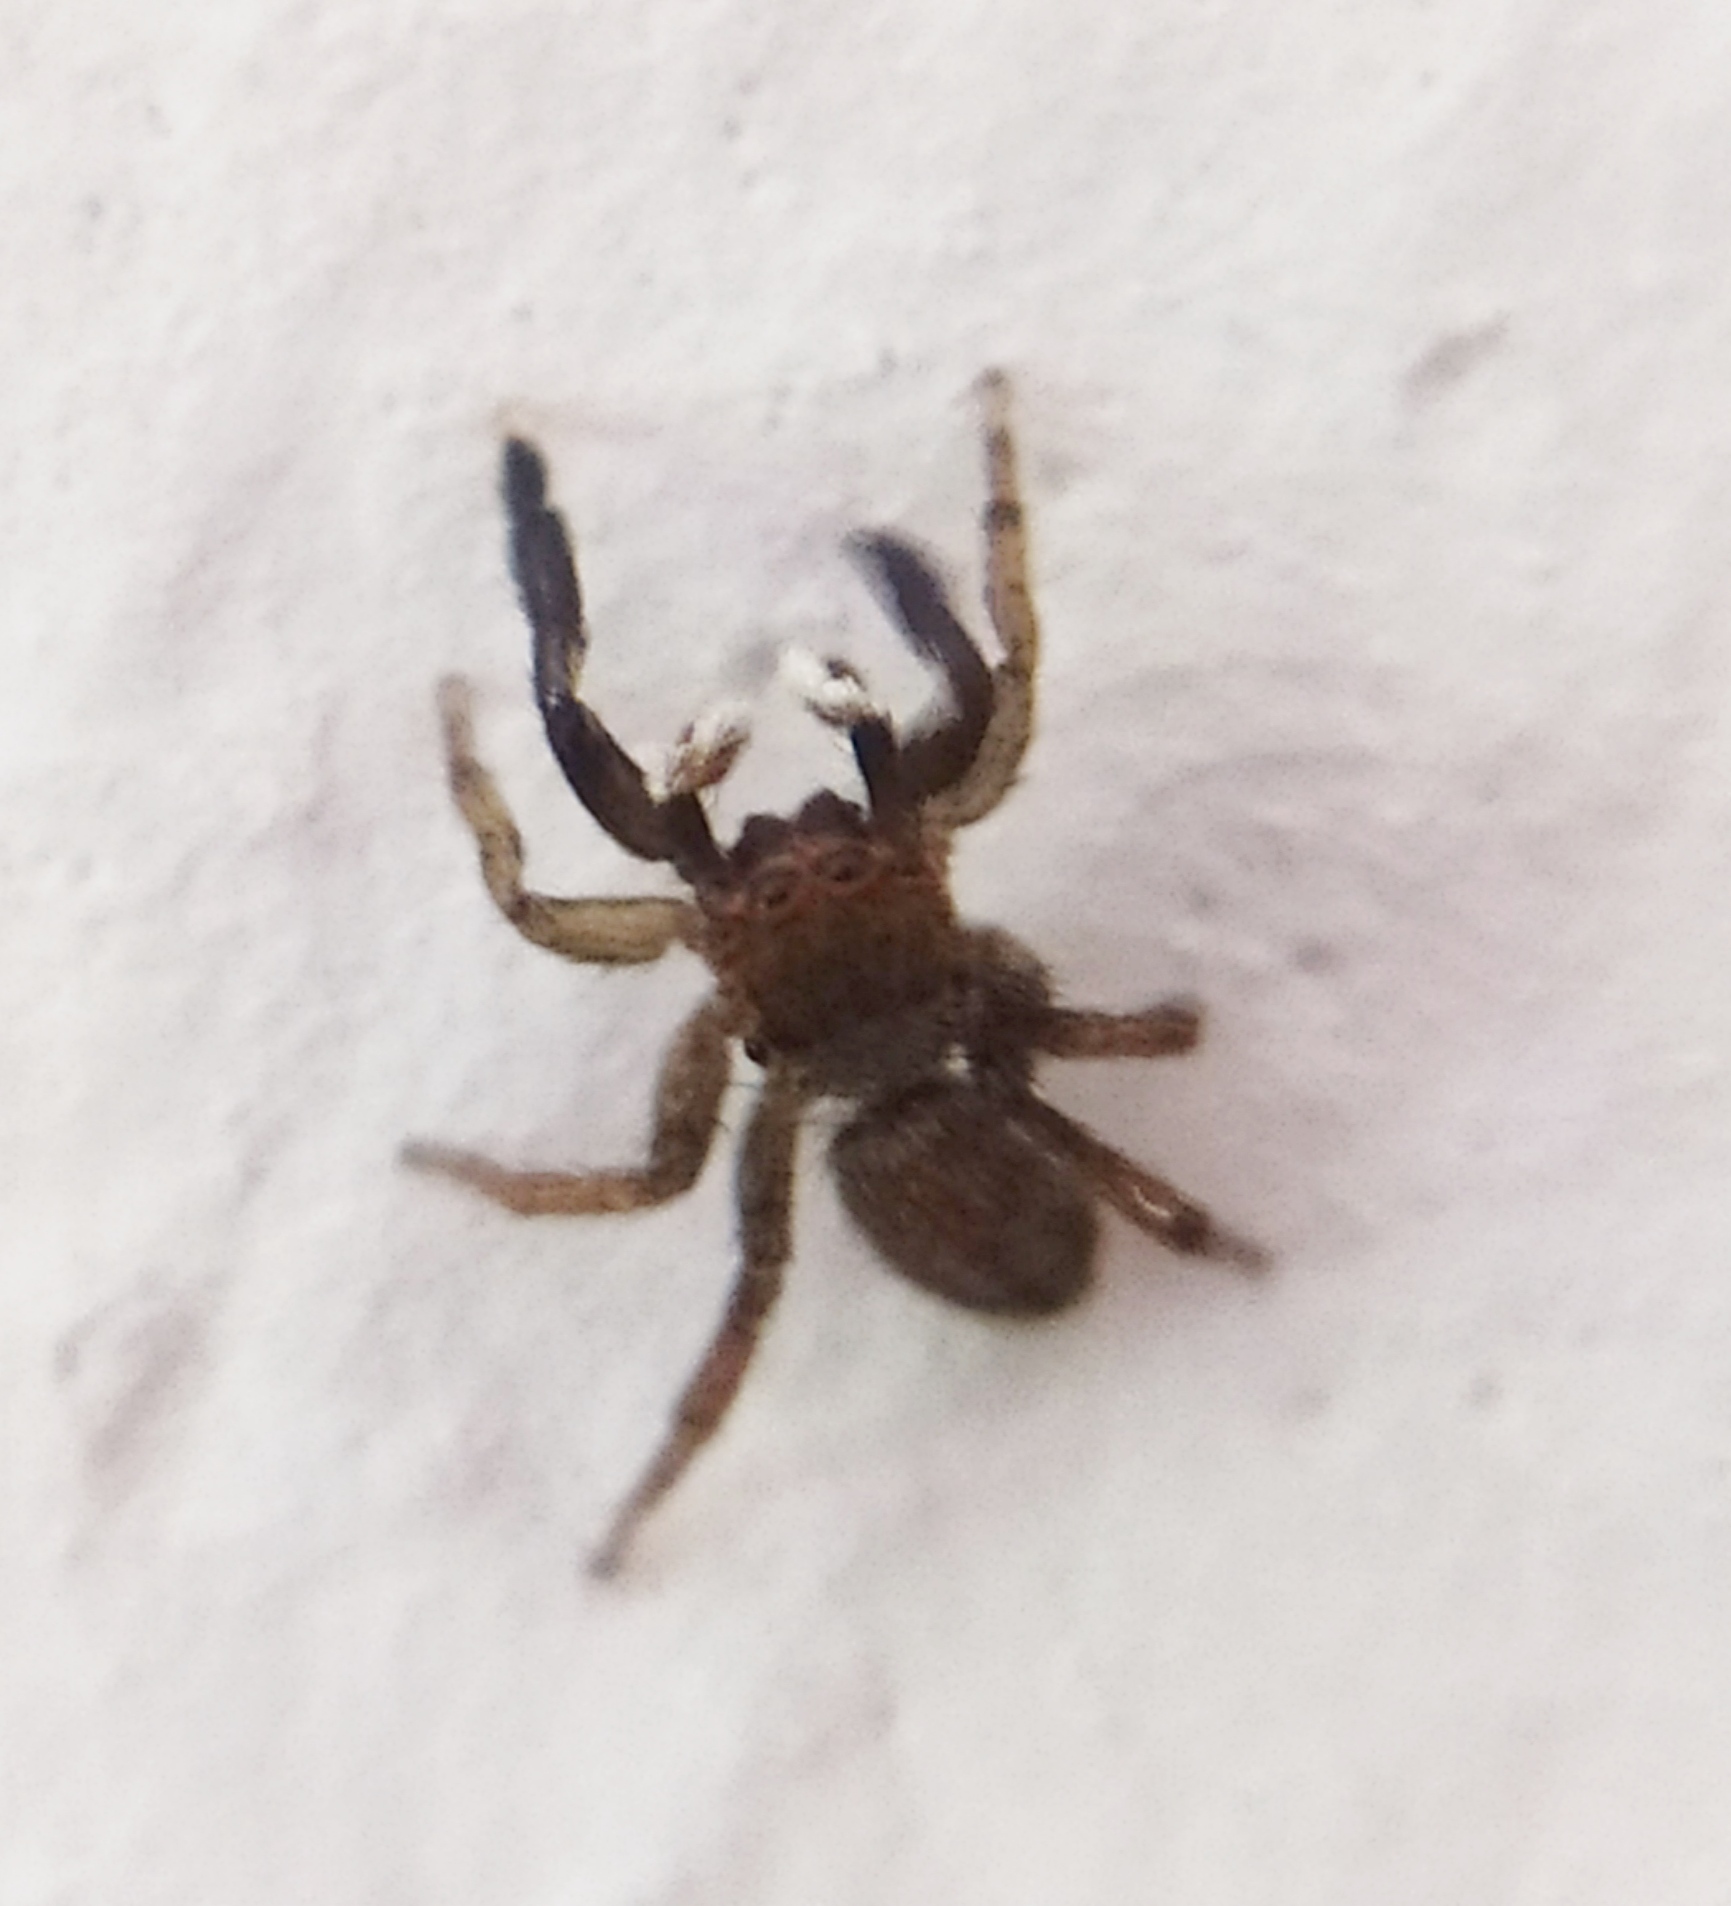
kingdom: Animalia
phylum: Arthropoda
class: Arachnida
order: Araneae
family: Salticidae
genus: Euophrys
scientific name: Euophrys frontalis
